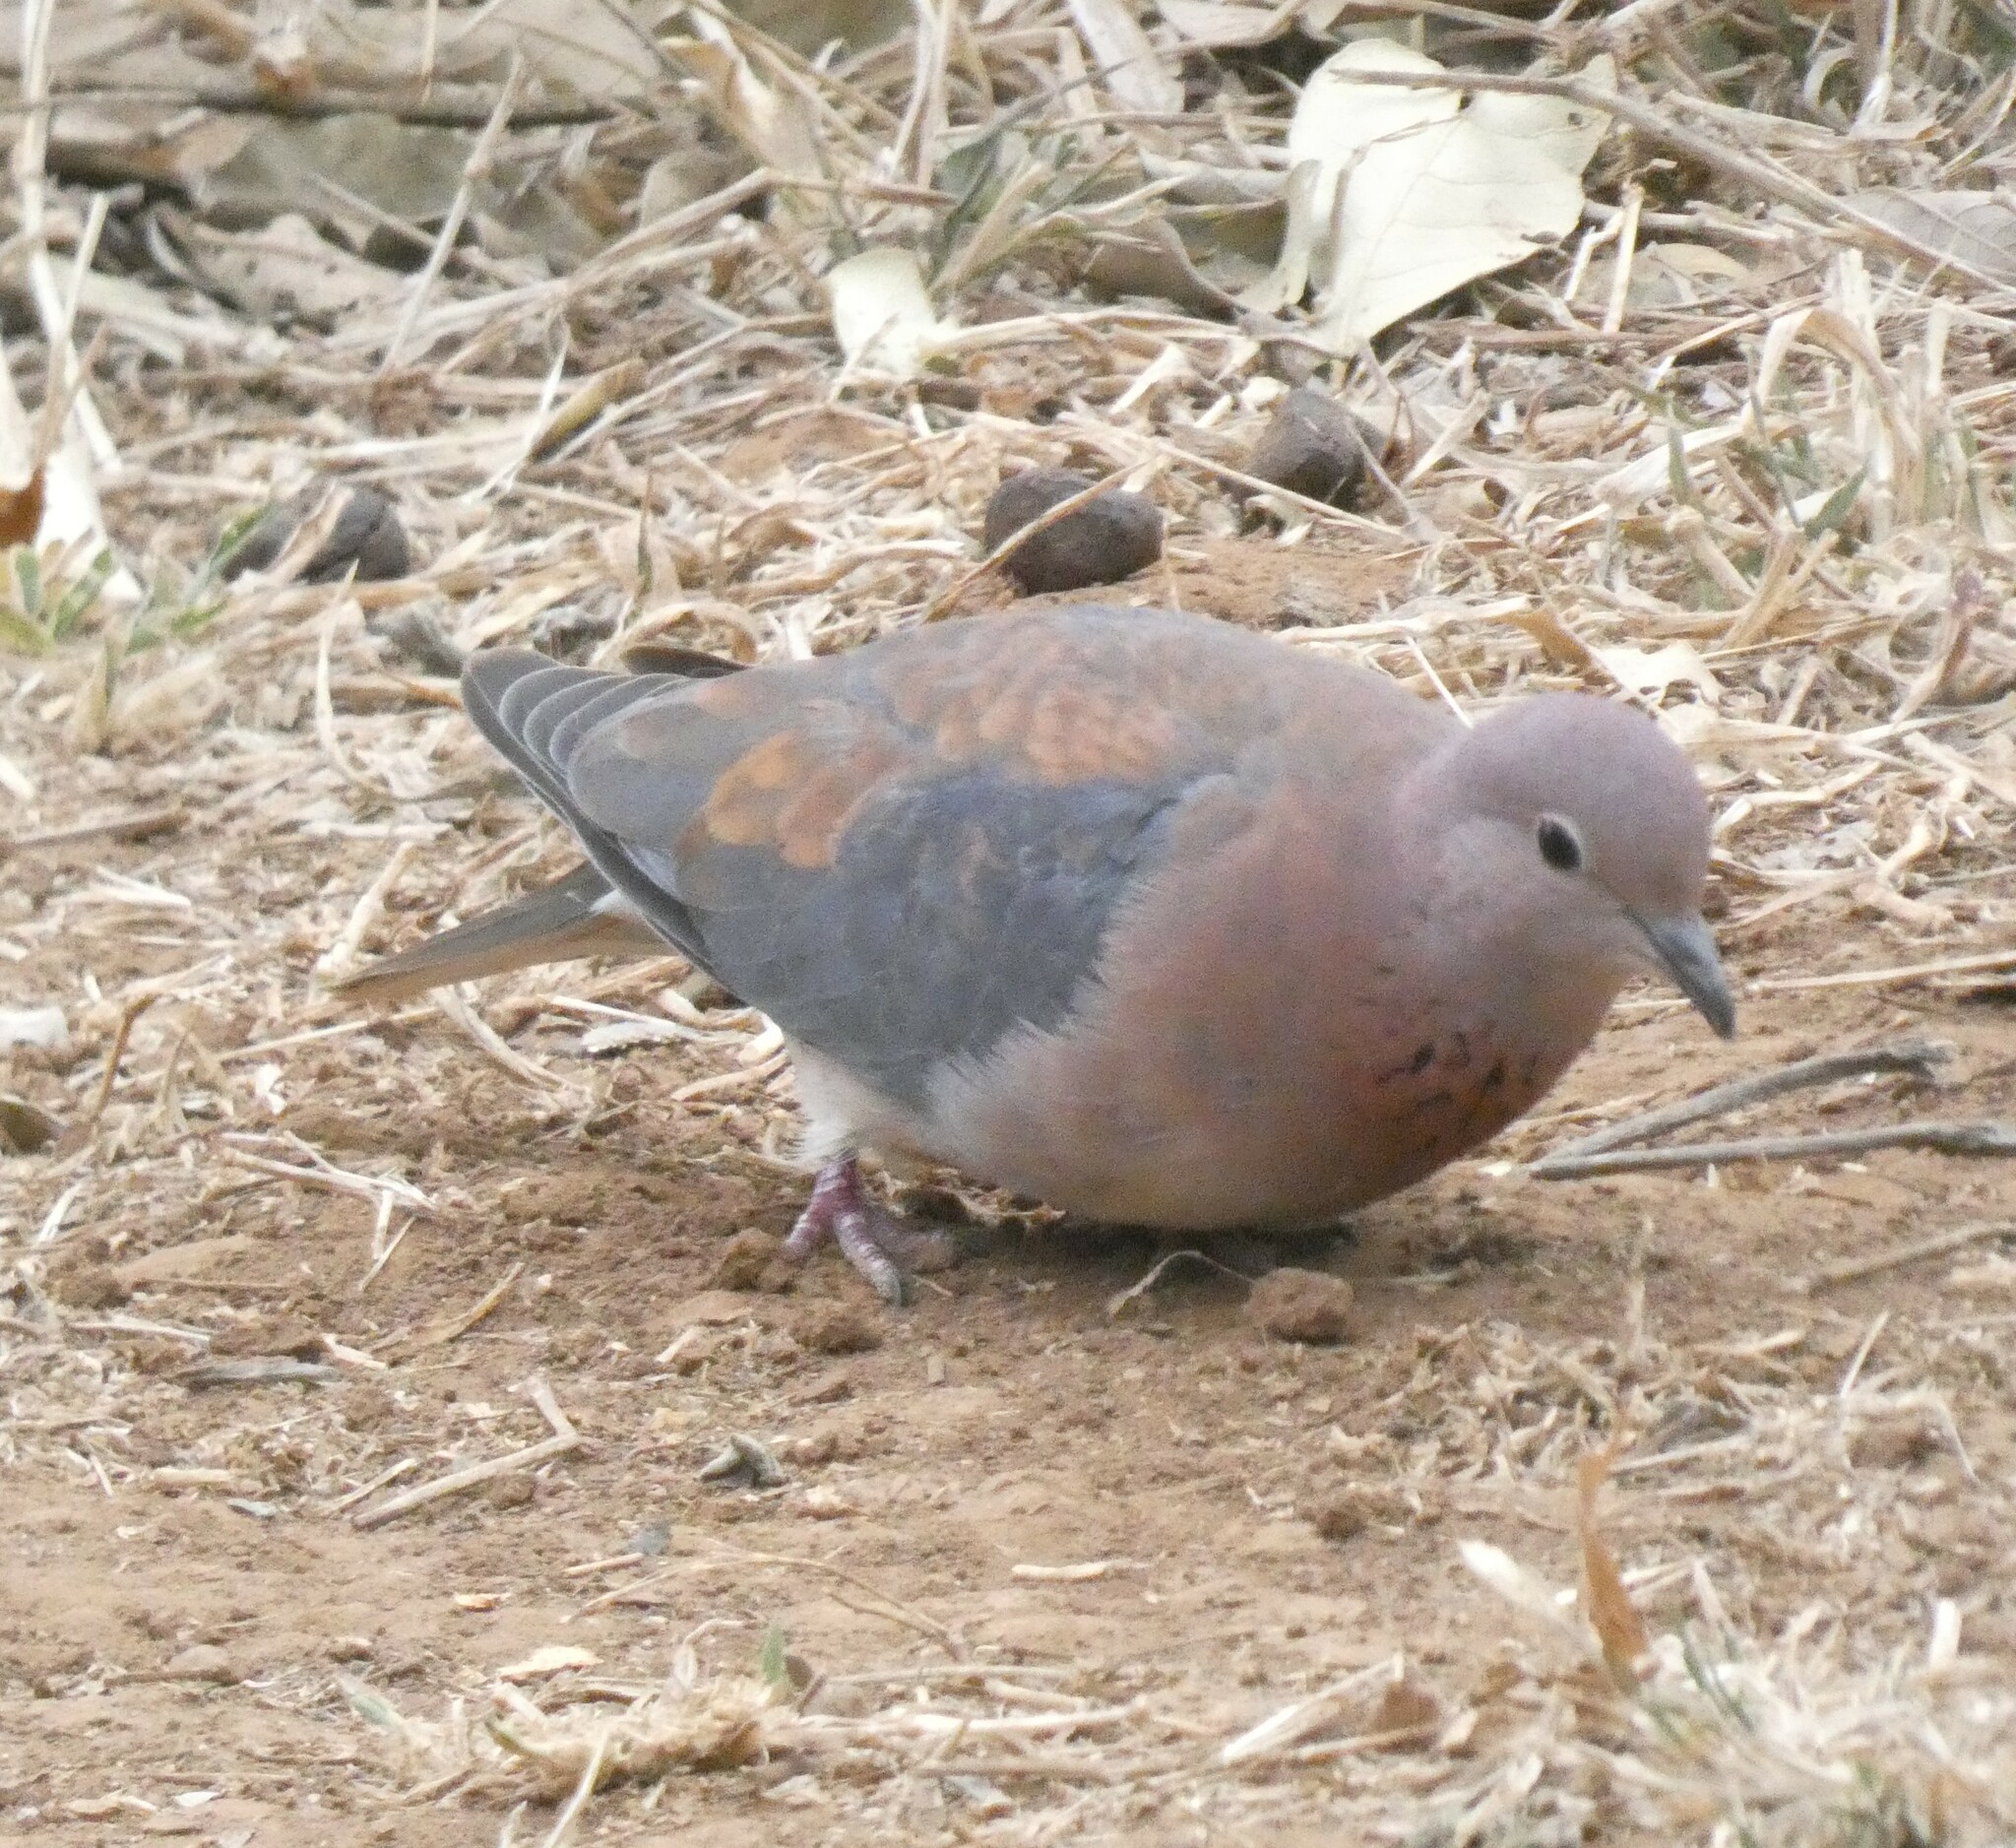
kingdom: Animalia
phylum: Chordata
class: Aves
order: Columbiformes
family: Columbidae
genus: Spilopelia
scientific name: Spilopelia senegalensis
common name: Laughing dove
